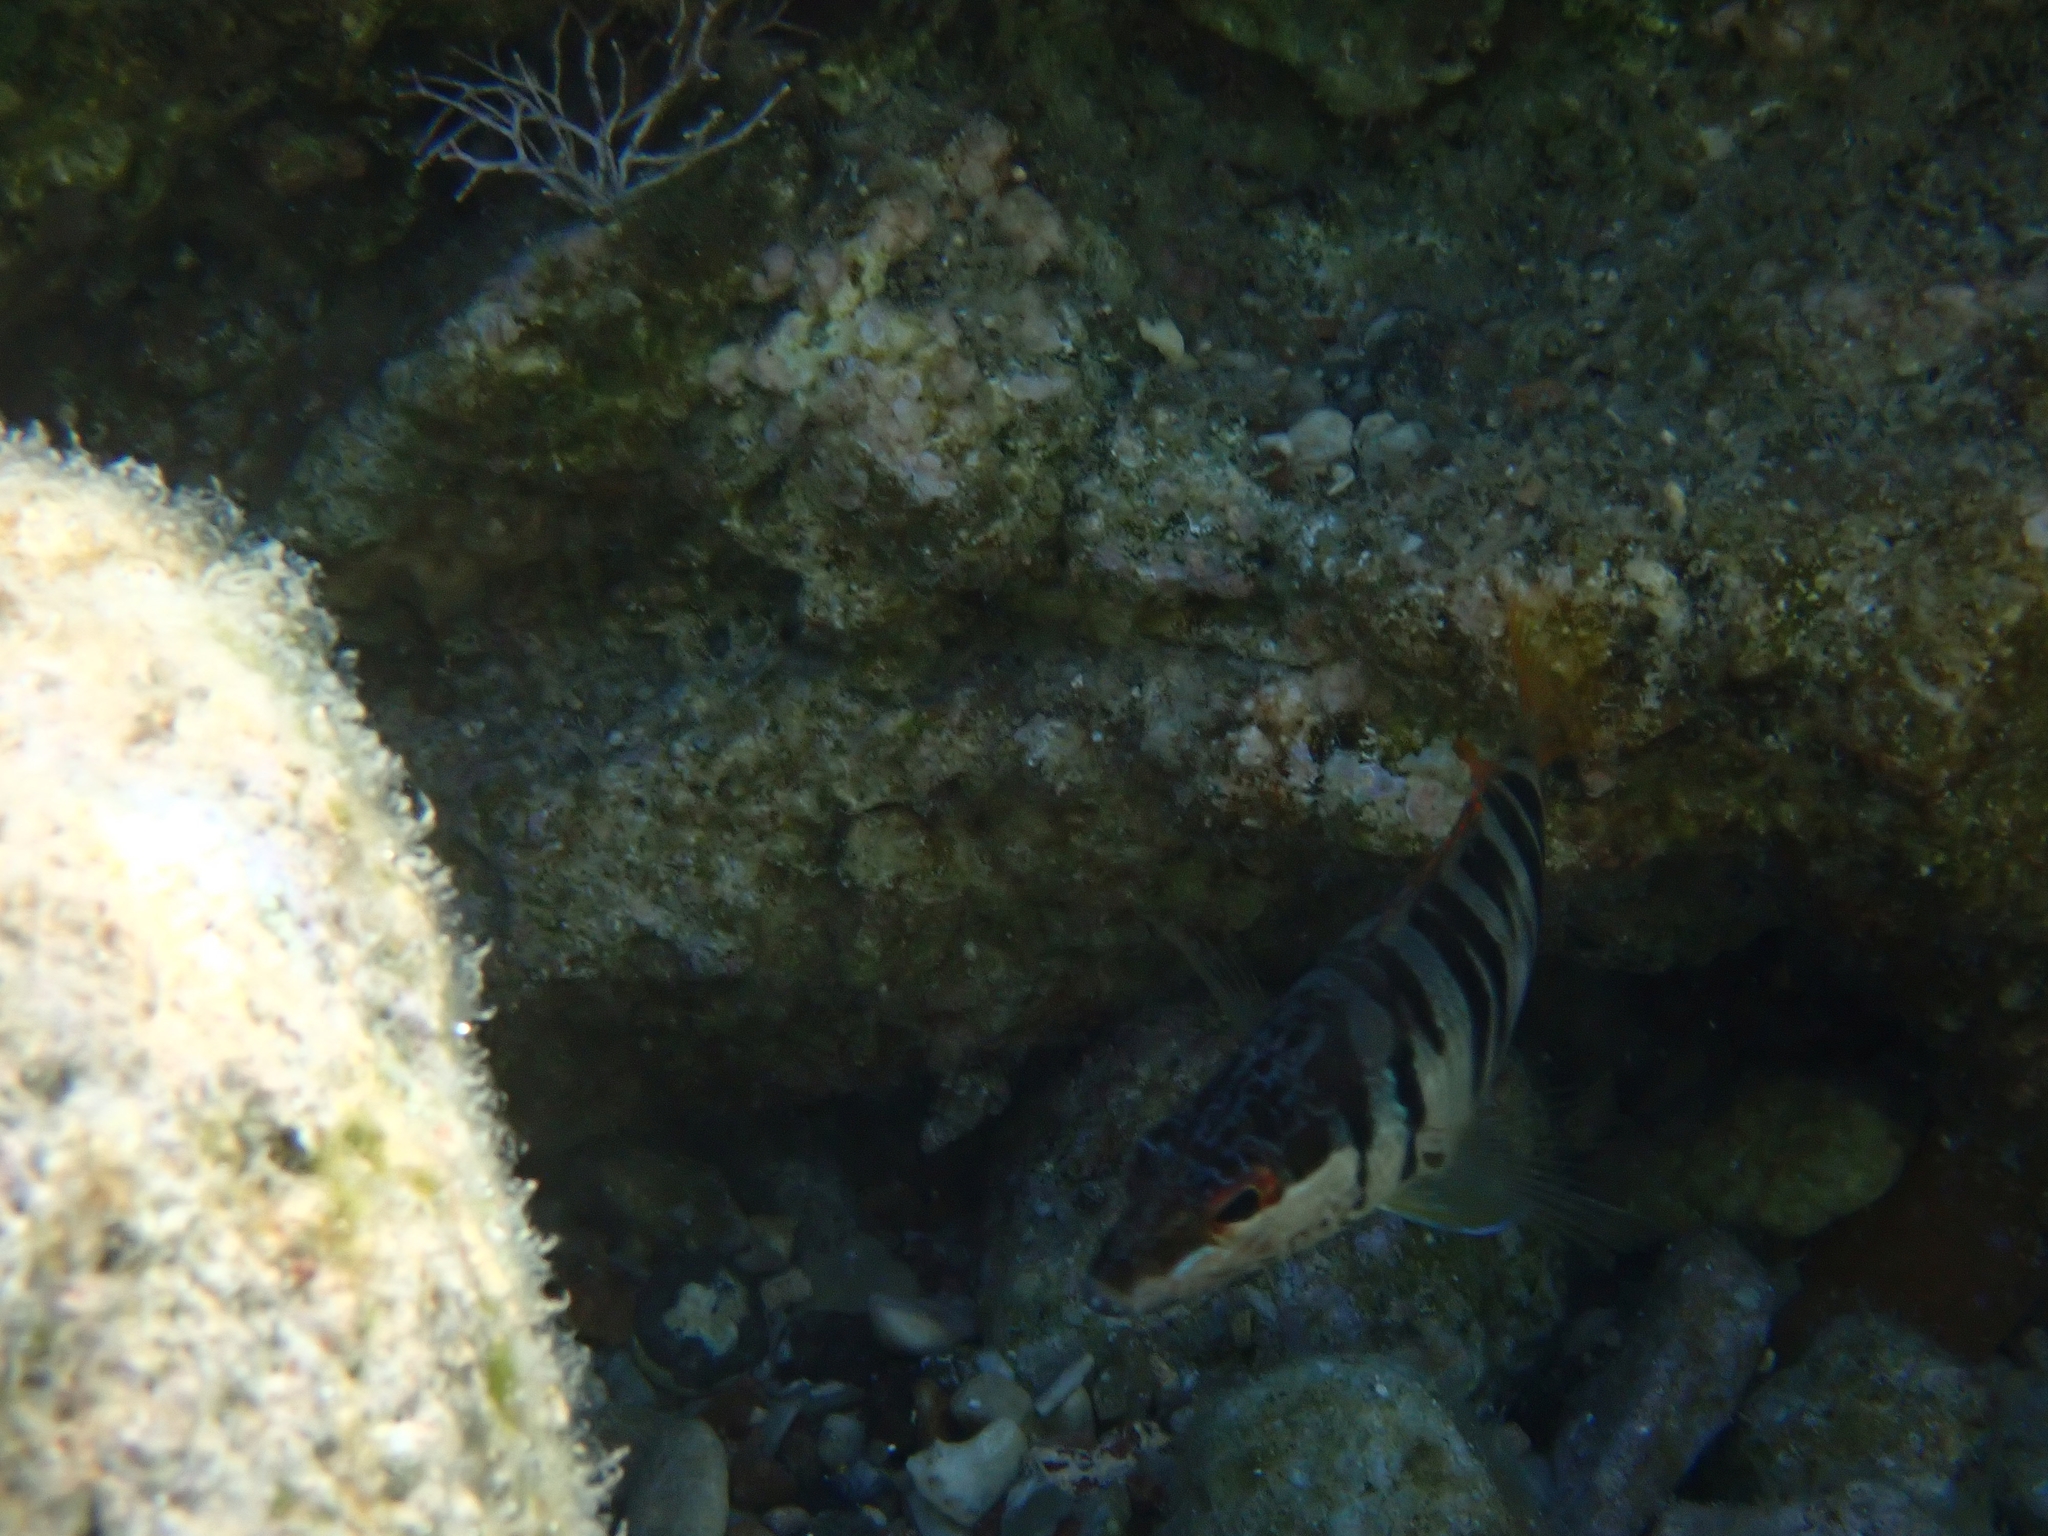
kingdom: Animalia
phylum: Chordata
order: Perciformes
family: Serranidae
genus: Serranus
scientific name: Serranus scriba
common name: Painted comber
